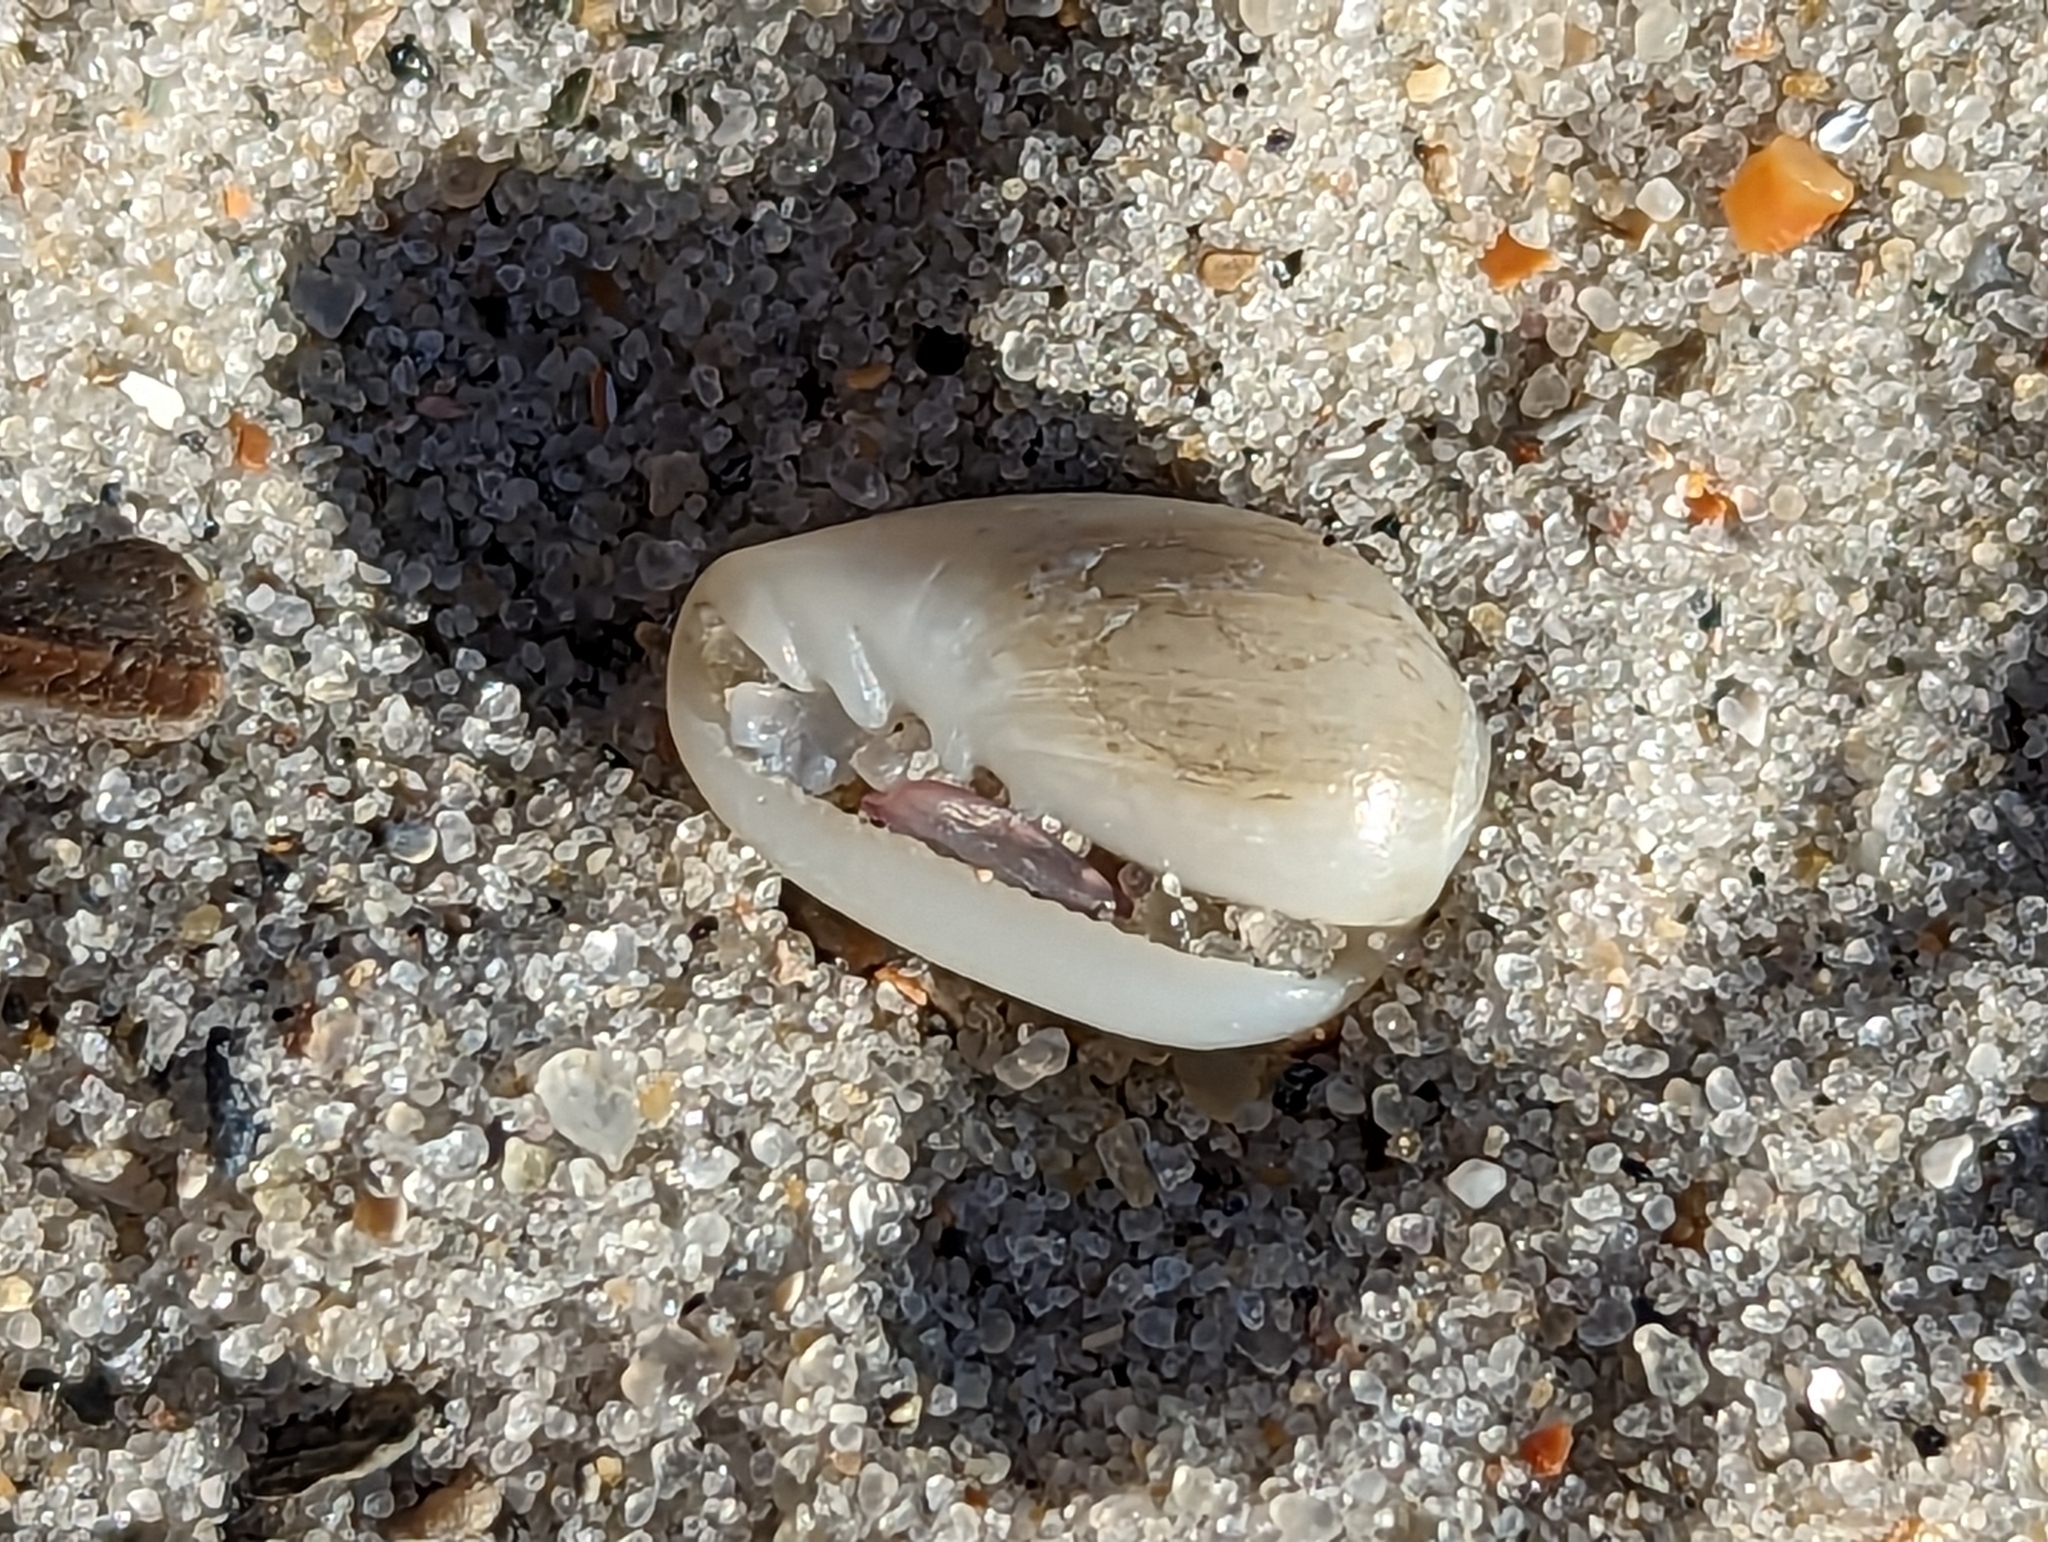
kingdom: Animalia
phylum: Mollusca
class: Gastropoda
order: Neogastropoda
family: Marginellidae
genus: Prunum
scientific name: Prunum apicinum
